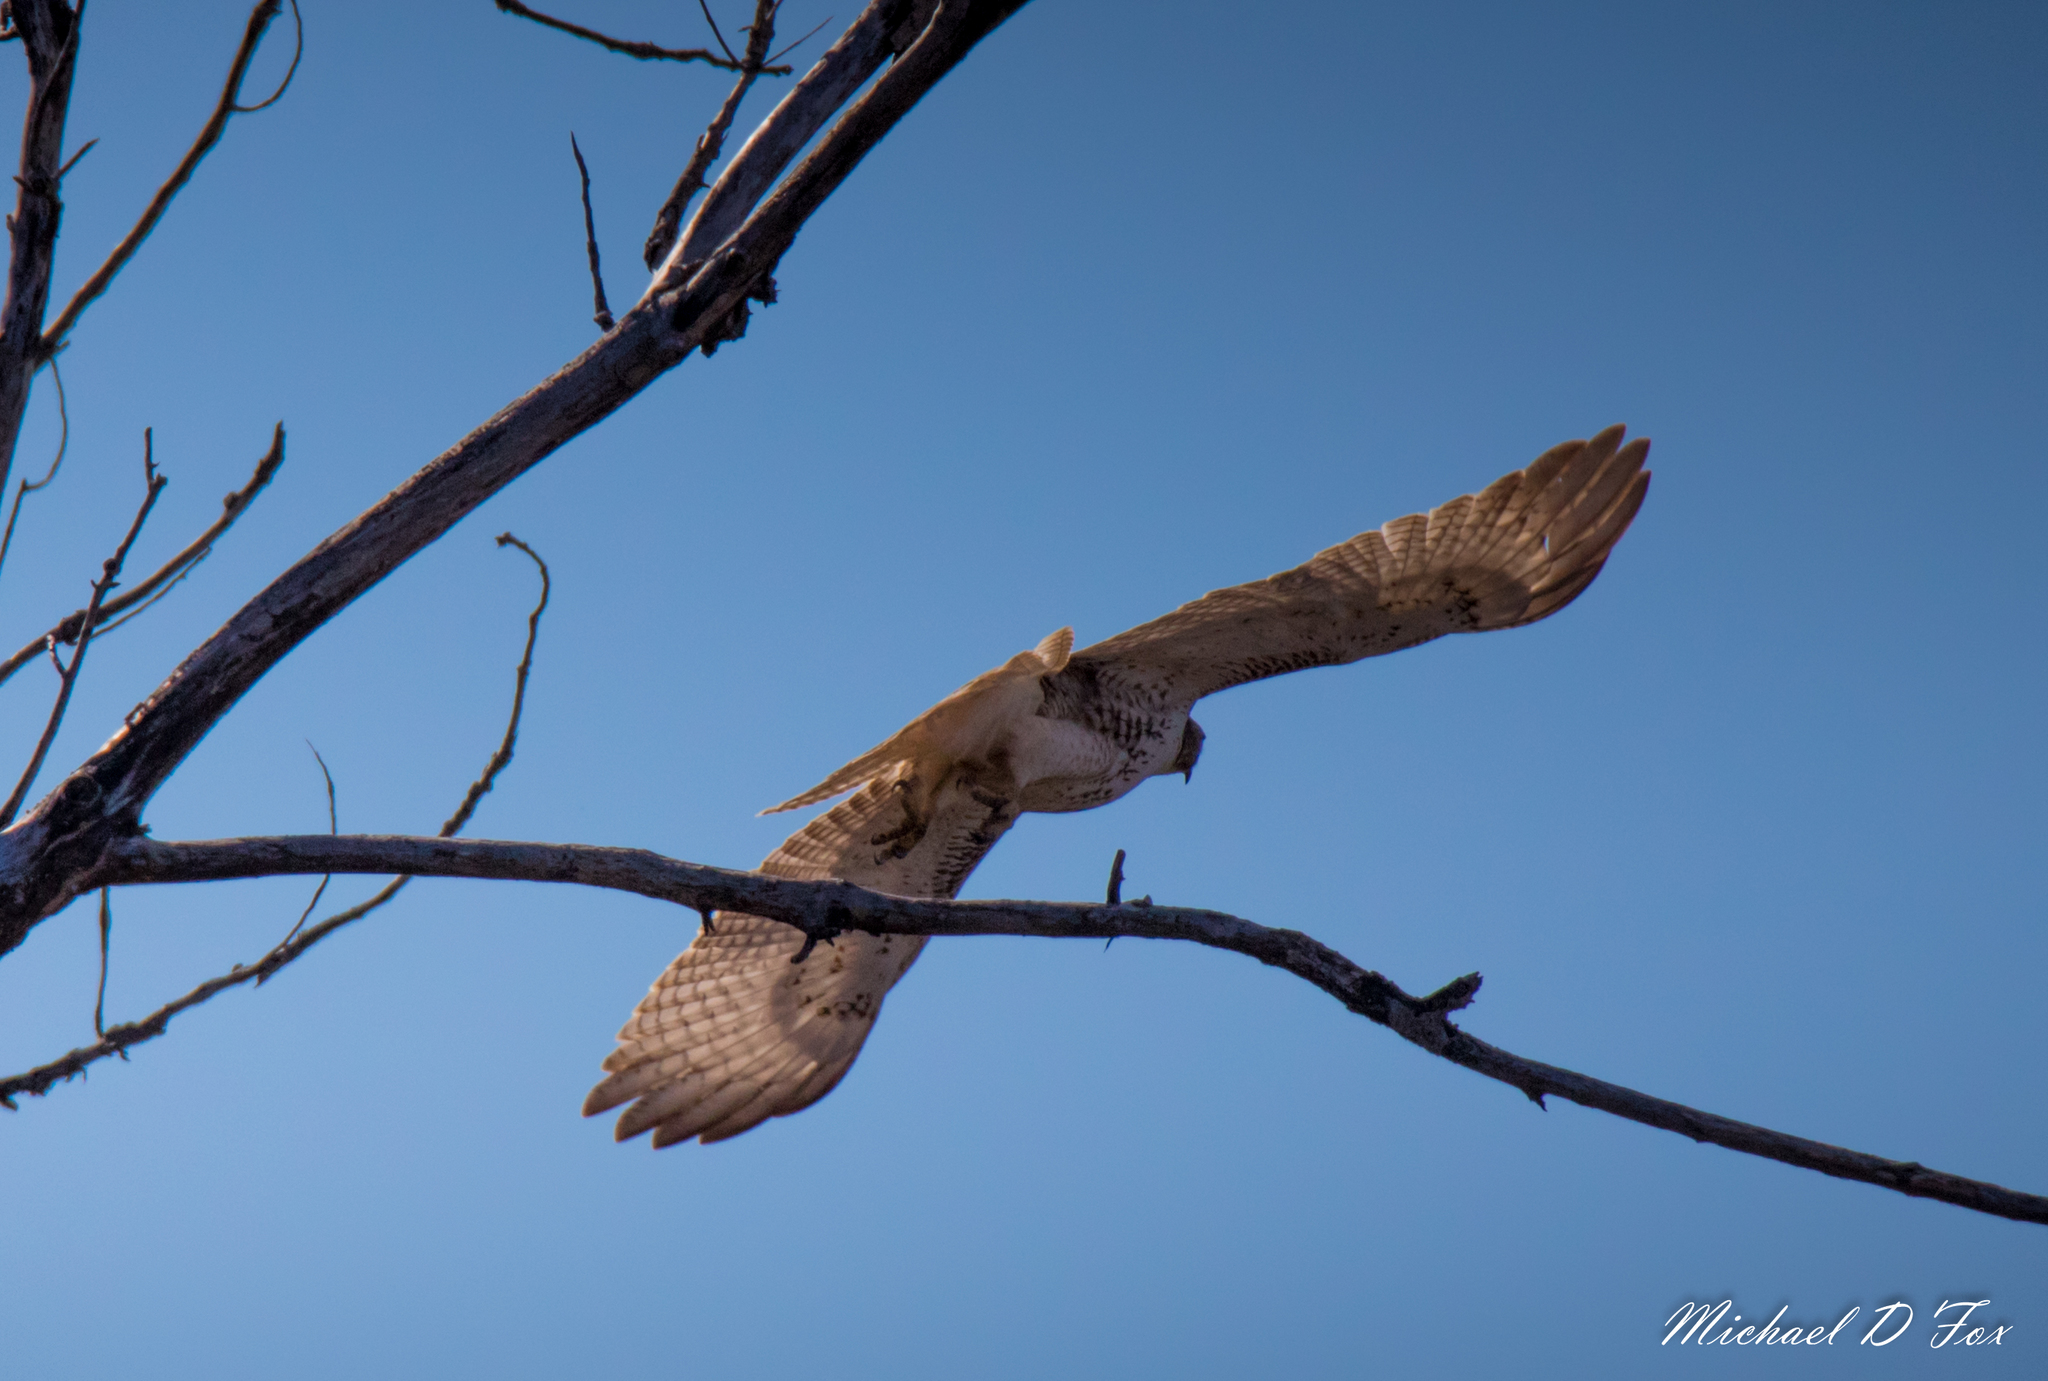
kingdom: Animalia
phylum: Chordata
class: Aves
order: Accipitriformes
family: Accipitridae
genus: Buteo
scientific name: Buteo jamaicensis
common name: Red-tailed hawk
